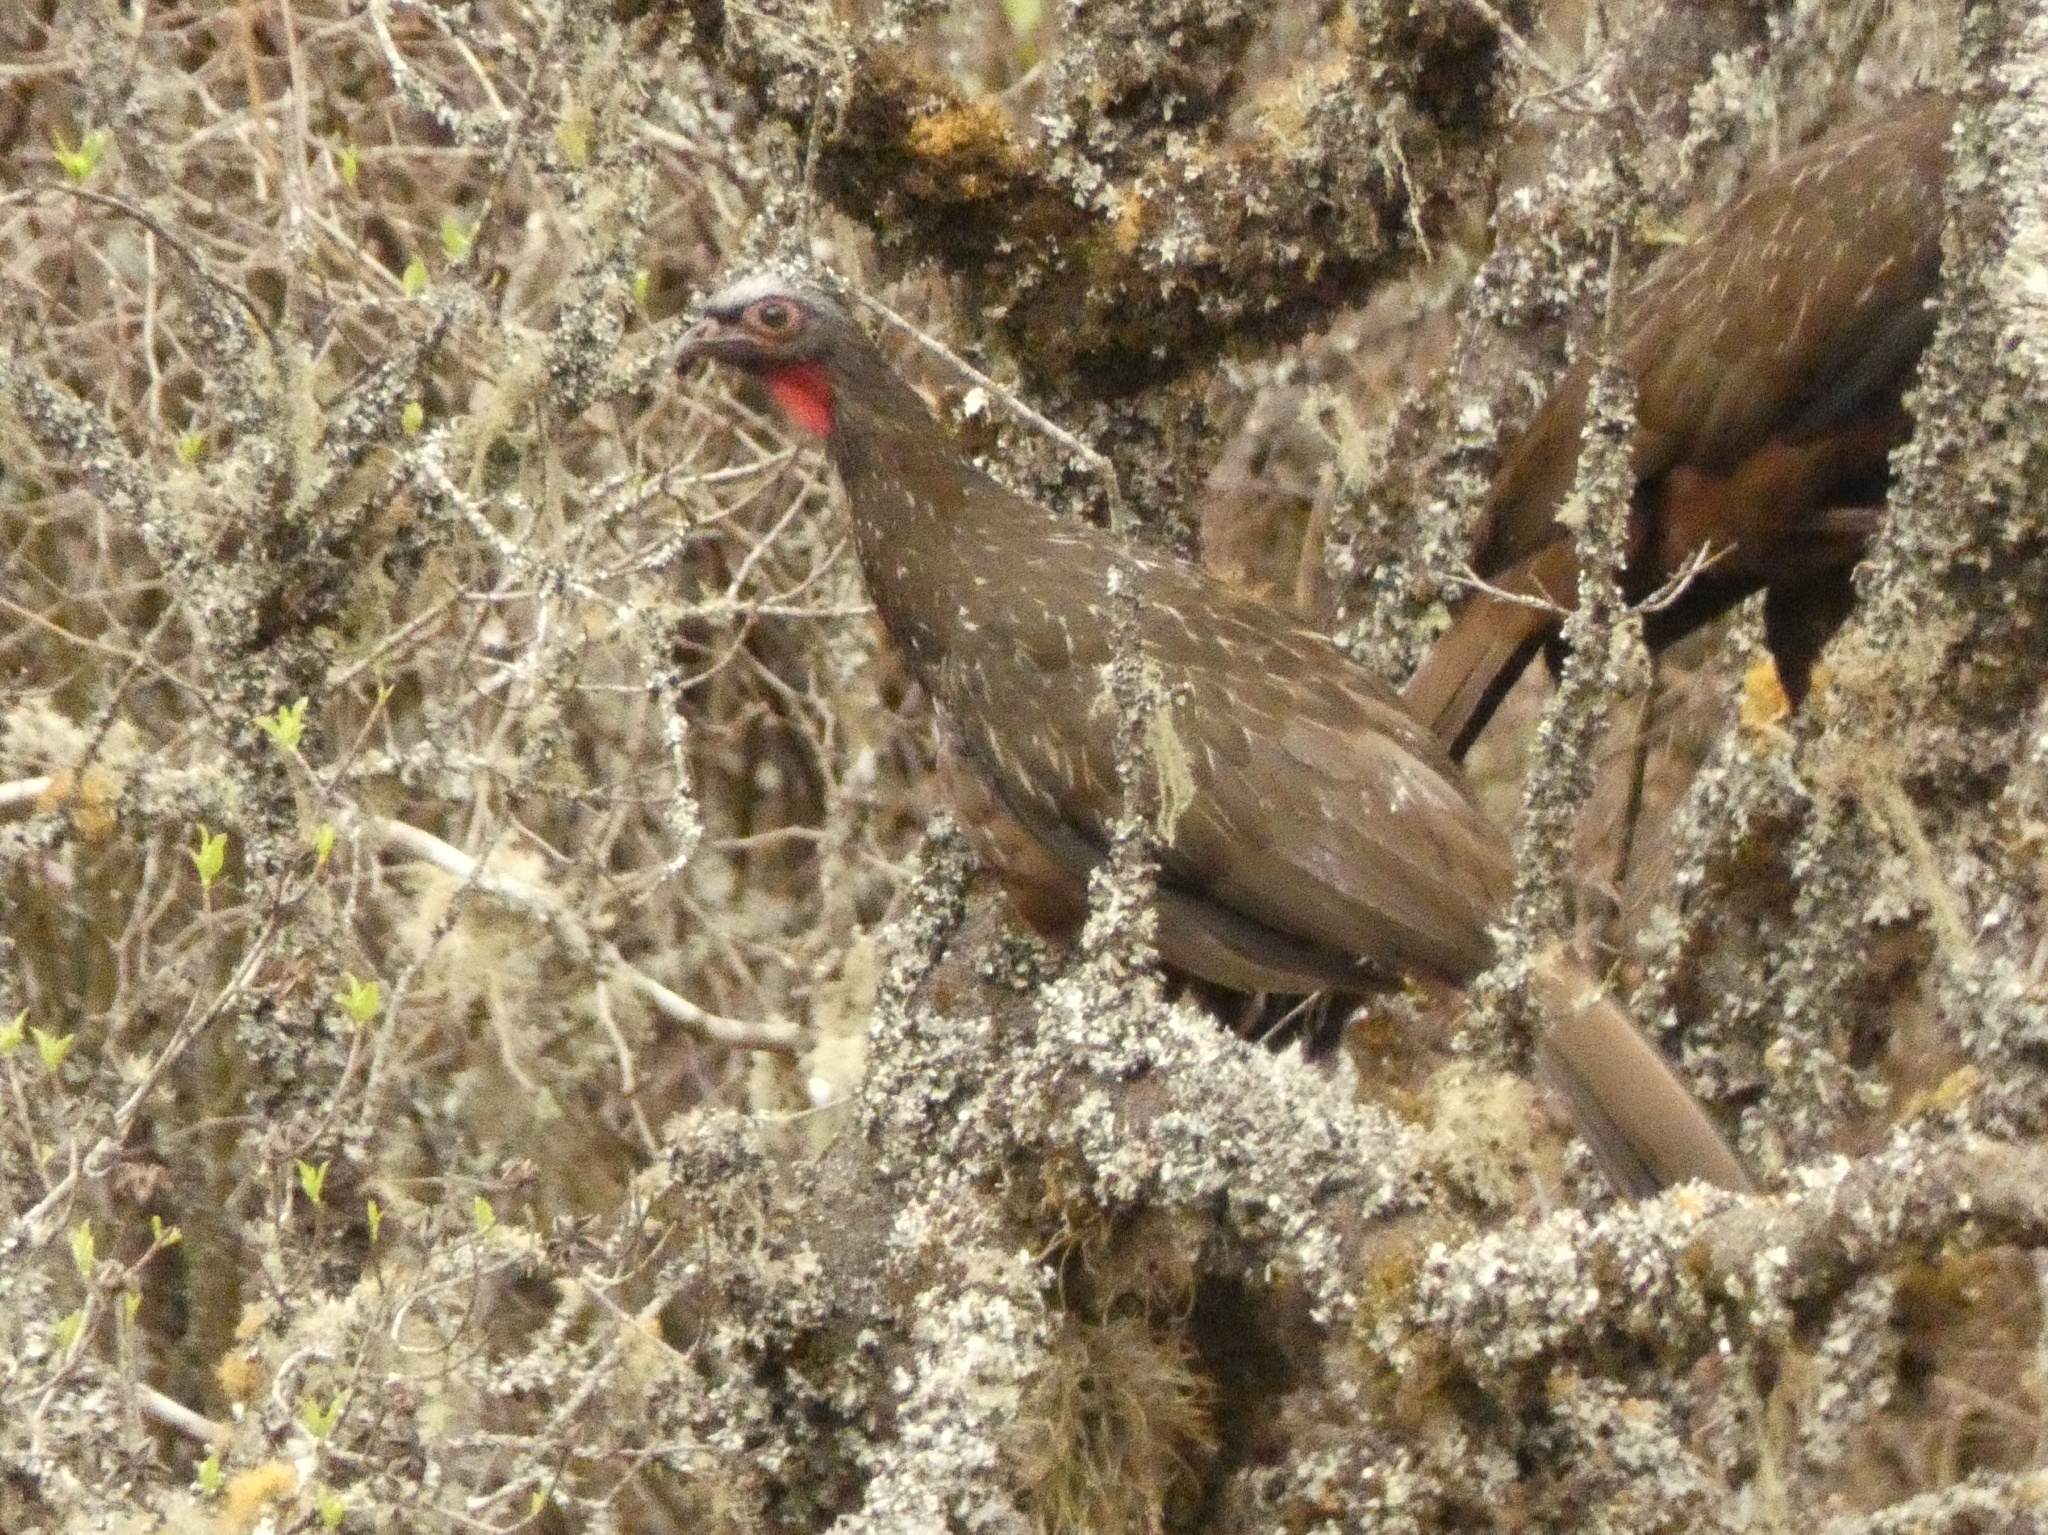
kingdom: Animalia
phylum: Chordata
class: Aves
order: Galliformes
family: Cracidae
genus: Penelope
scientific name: Penelope dabbenei
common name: Red-faced guan
